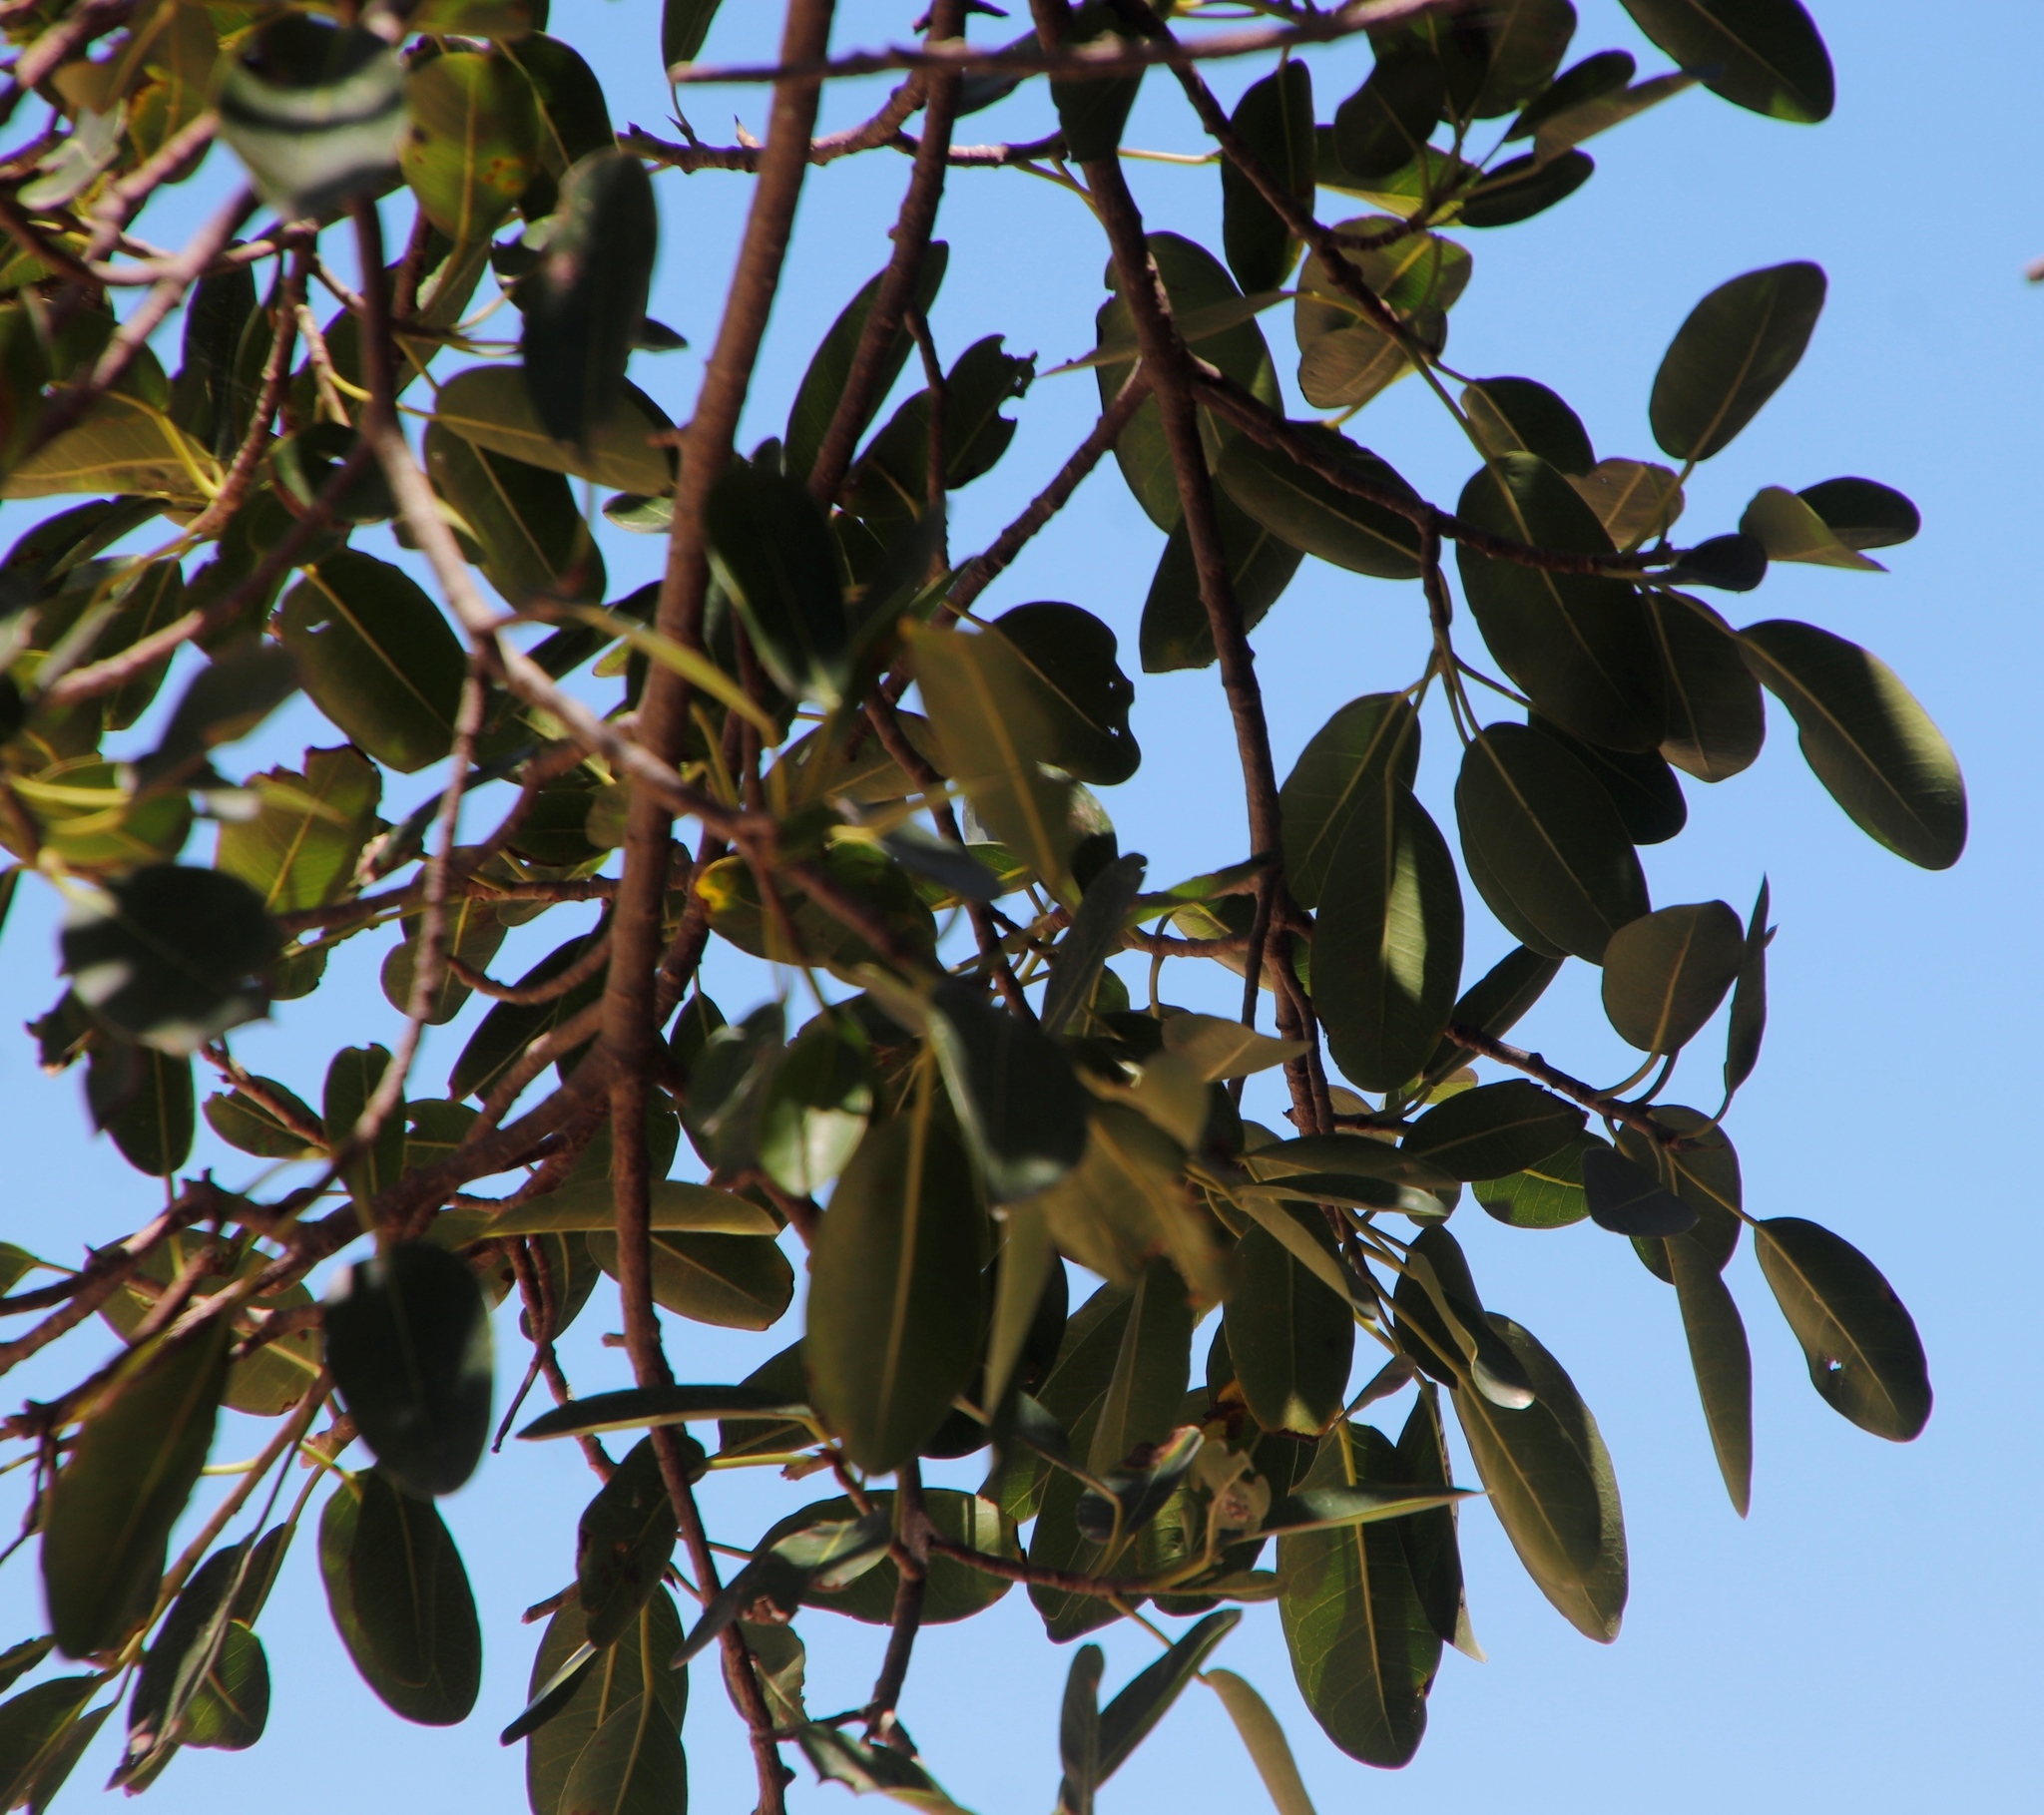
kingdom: Plantae
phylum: Tracheophyta
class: Magnoliopsida
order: Rosales
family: Moraceae
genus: Ficus
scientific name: Ficus thonningii
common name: Fig
